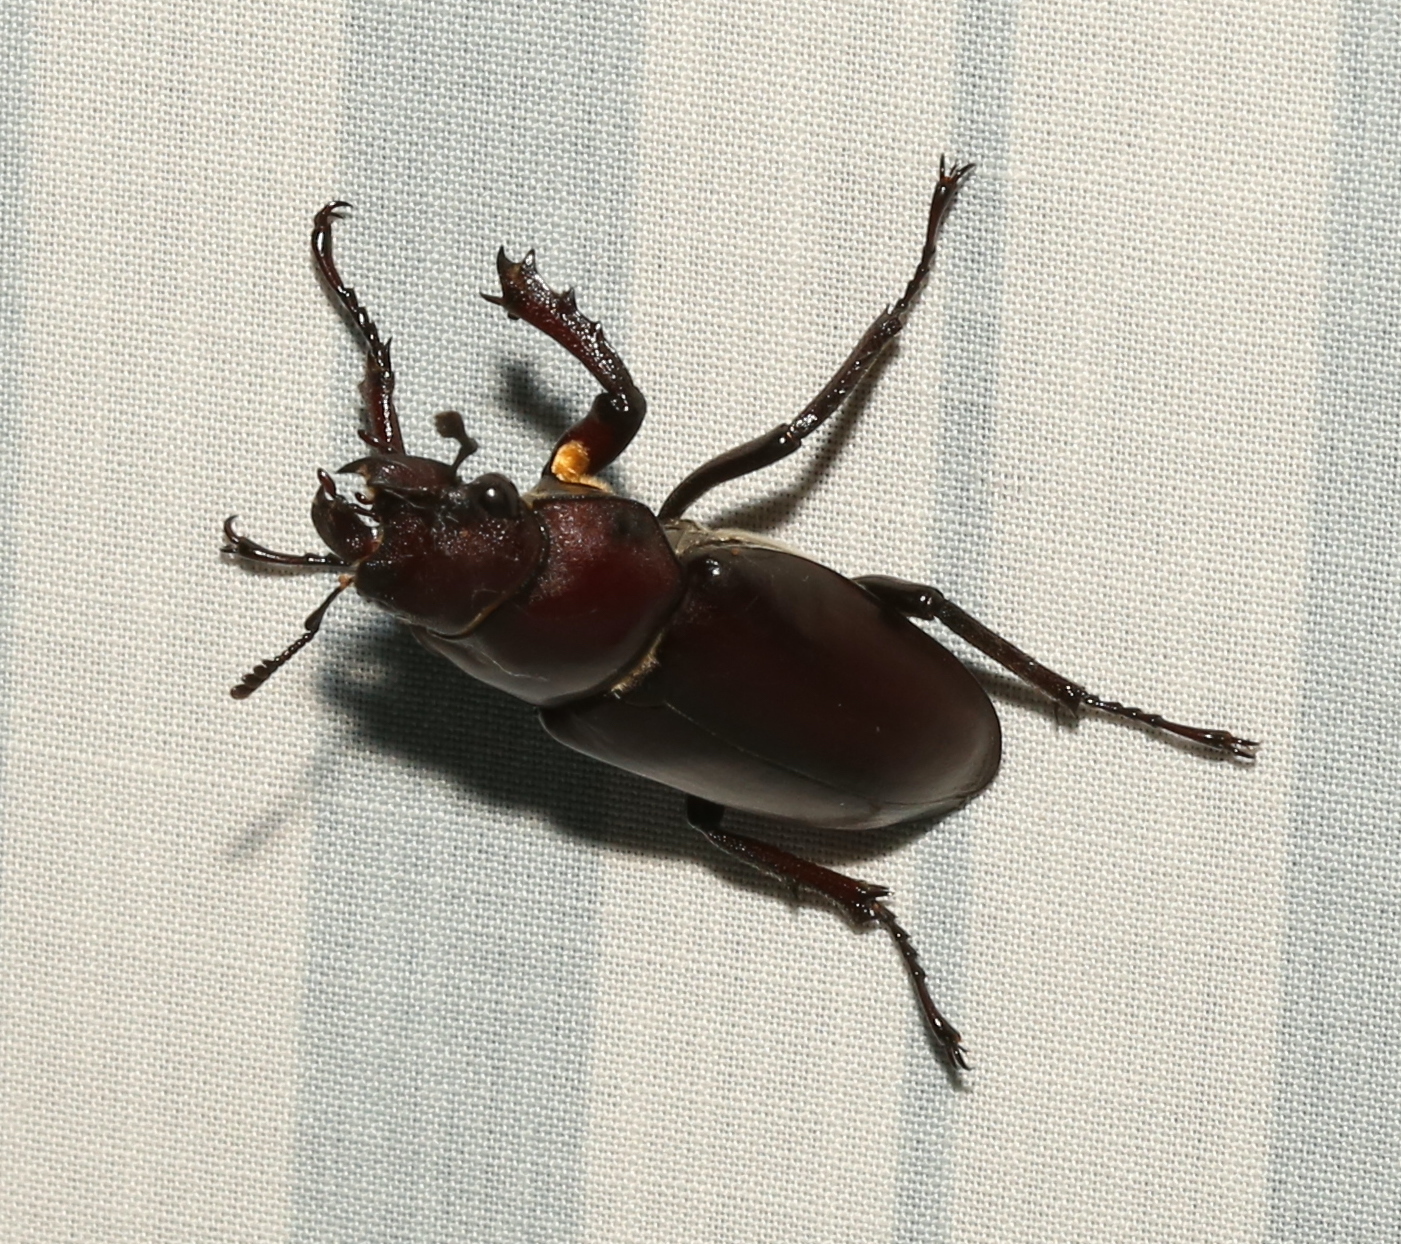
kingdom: Animalia
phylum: Arthropoda
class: Insecta
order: Coleoptera
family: Lucanidae
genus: Lucanus
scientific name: Lucanus elaphus
